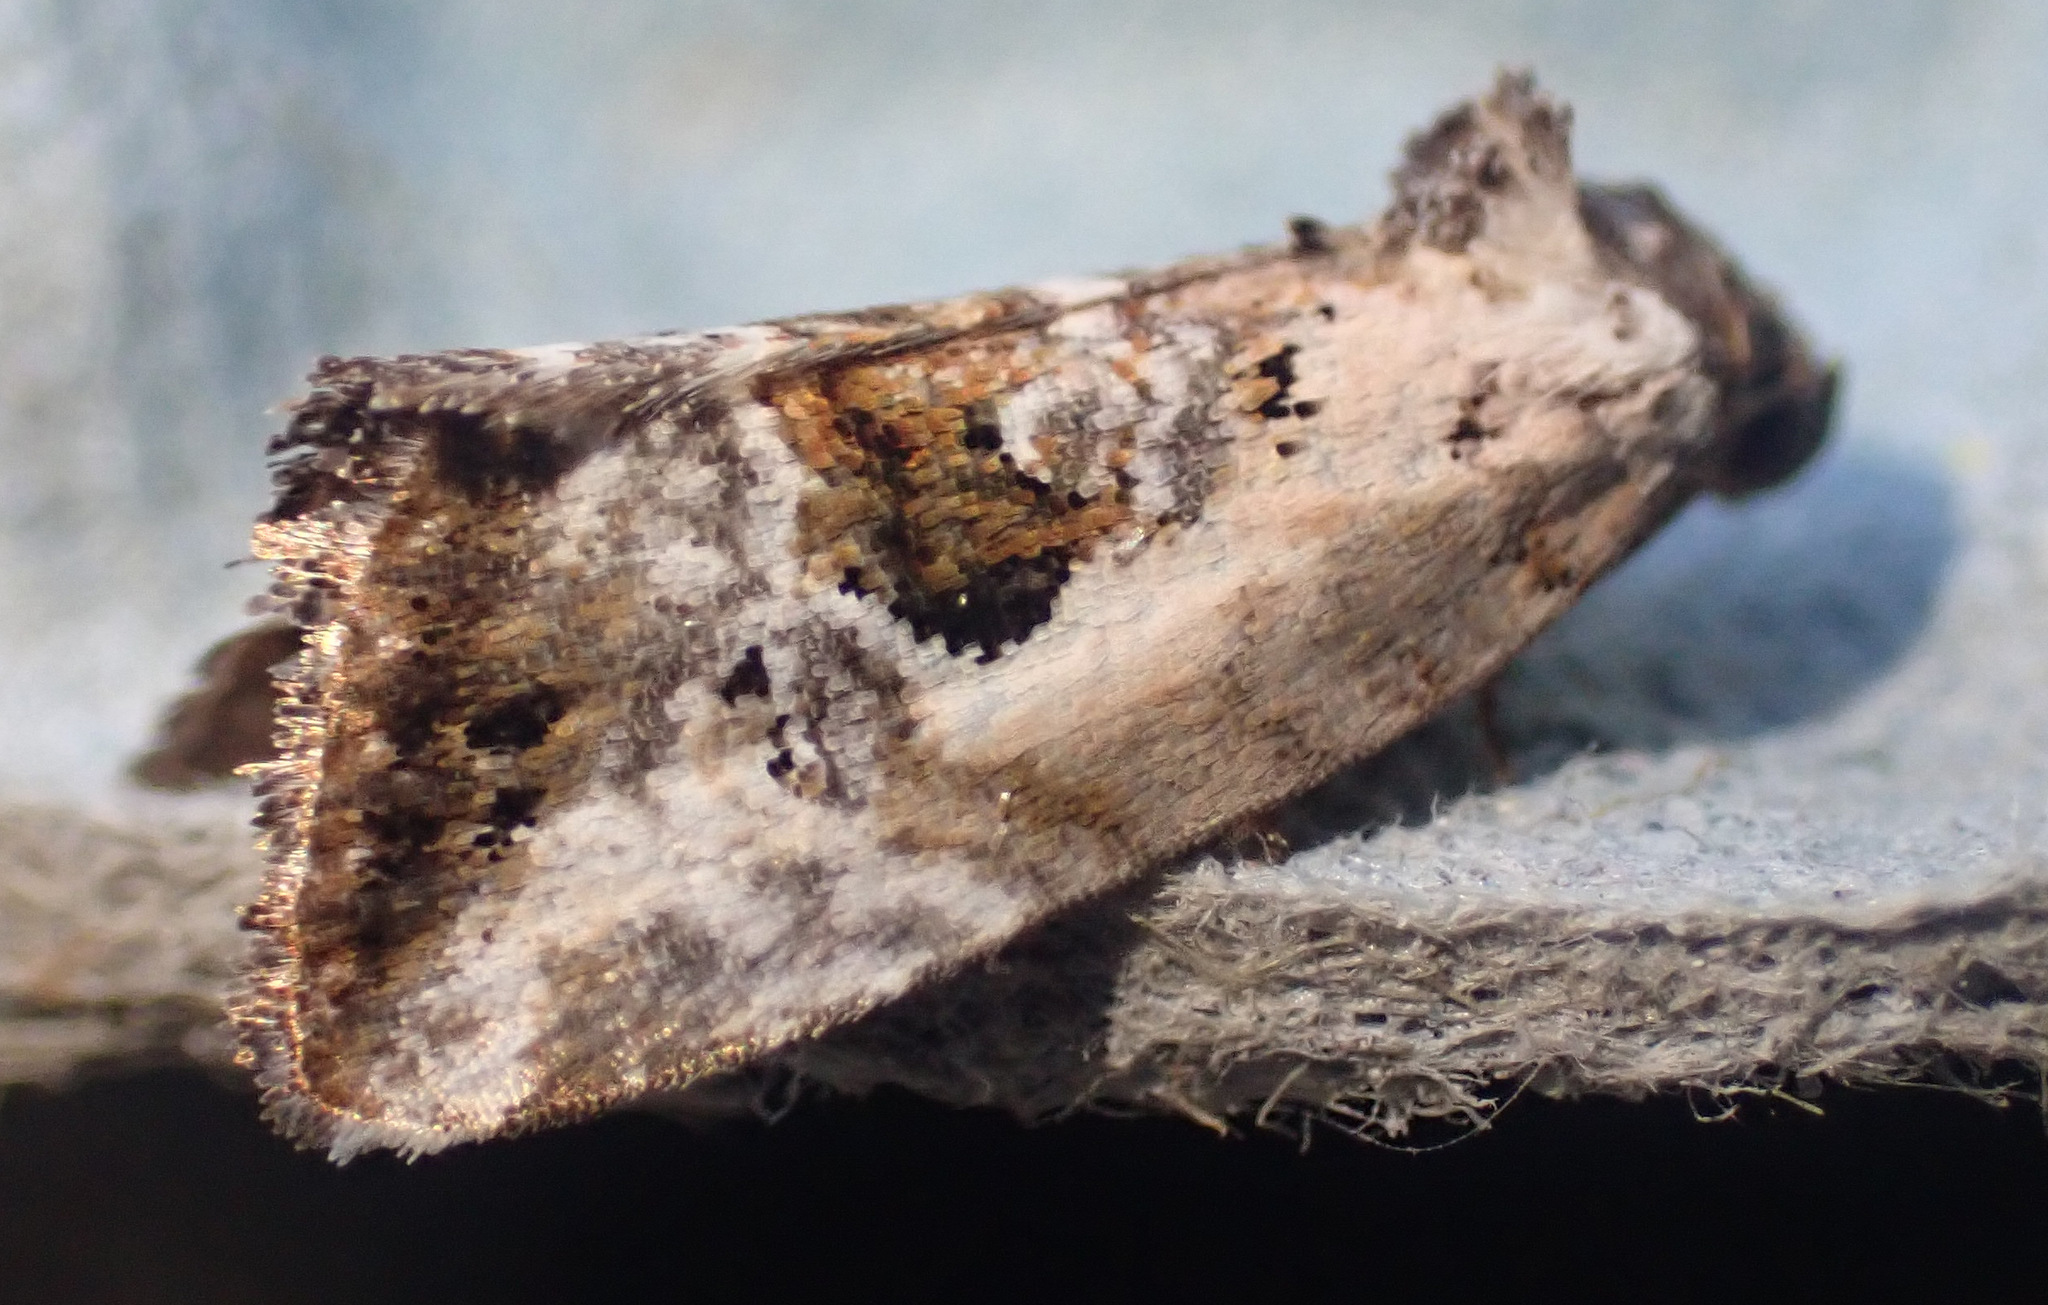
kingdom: Animalia
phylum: Arthropoda
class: Insecta
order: Lepidoptera
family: Noctuidae
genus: Elaphria
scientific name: Elaphria venustula
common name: Rosy marbled
